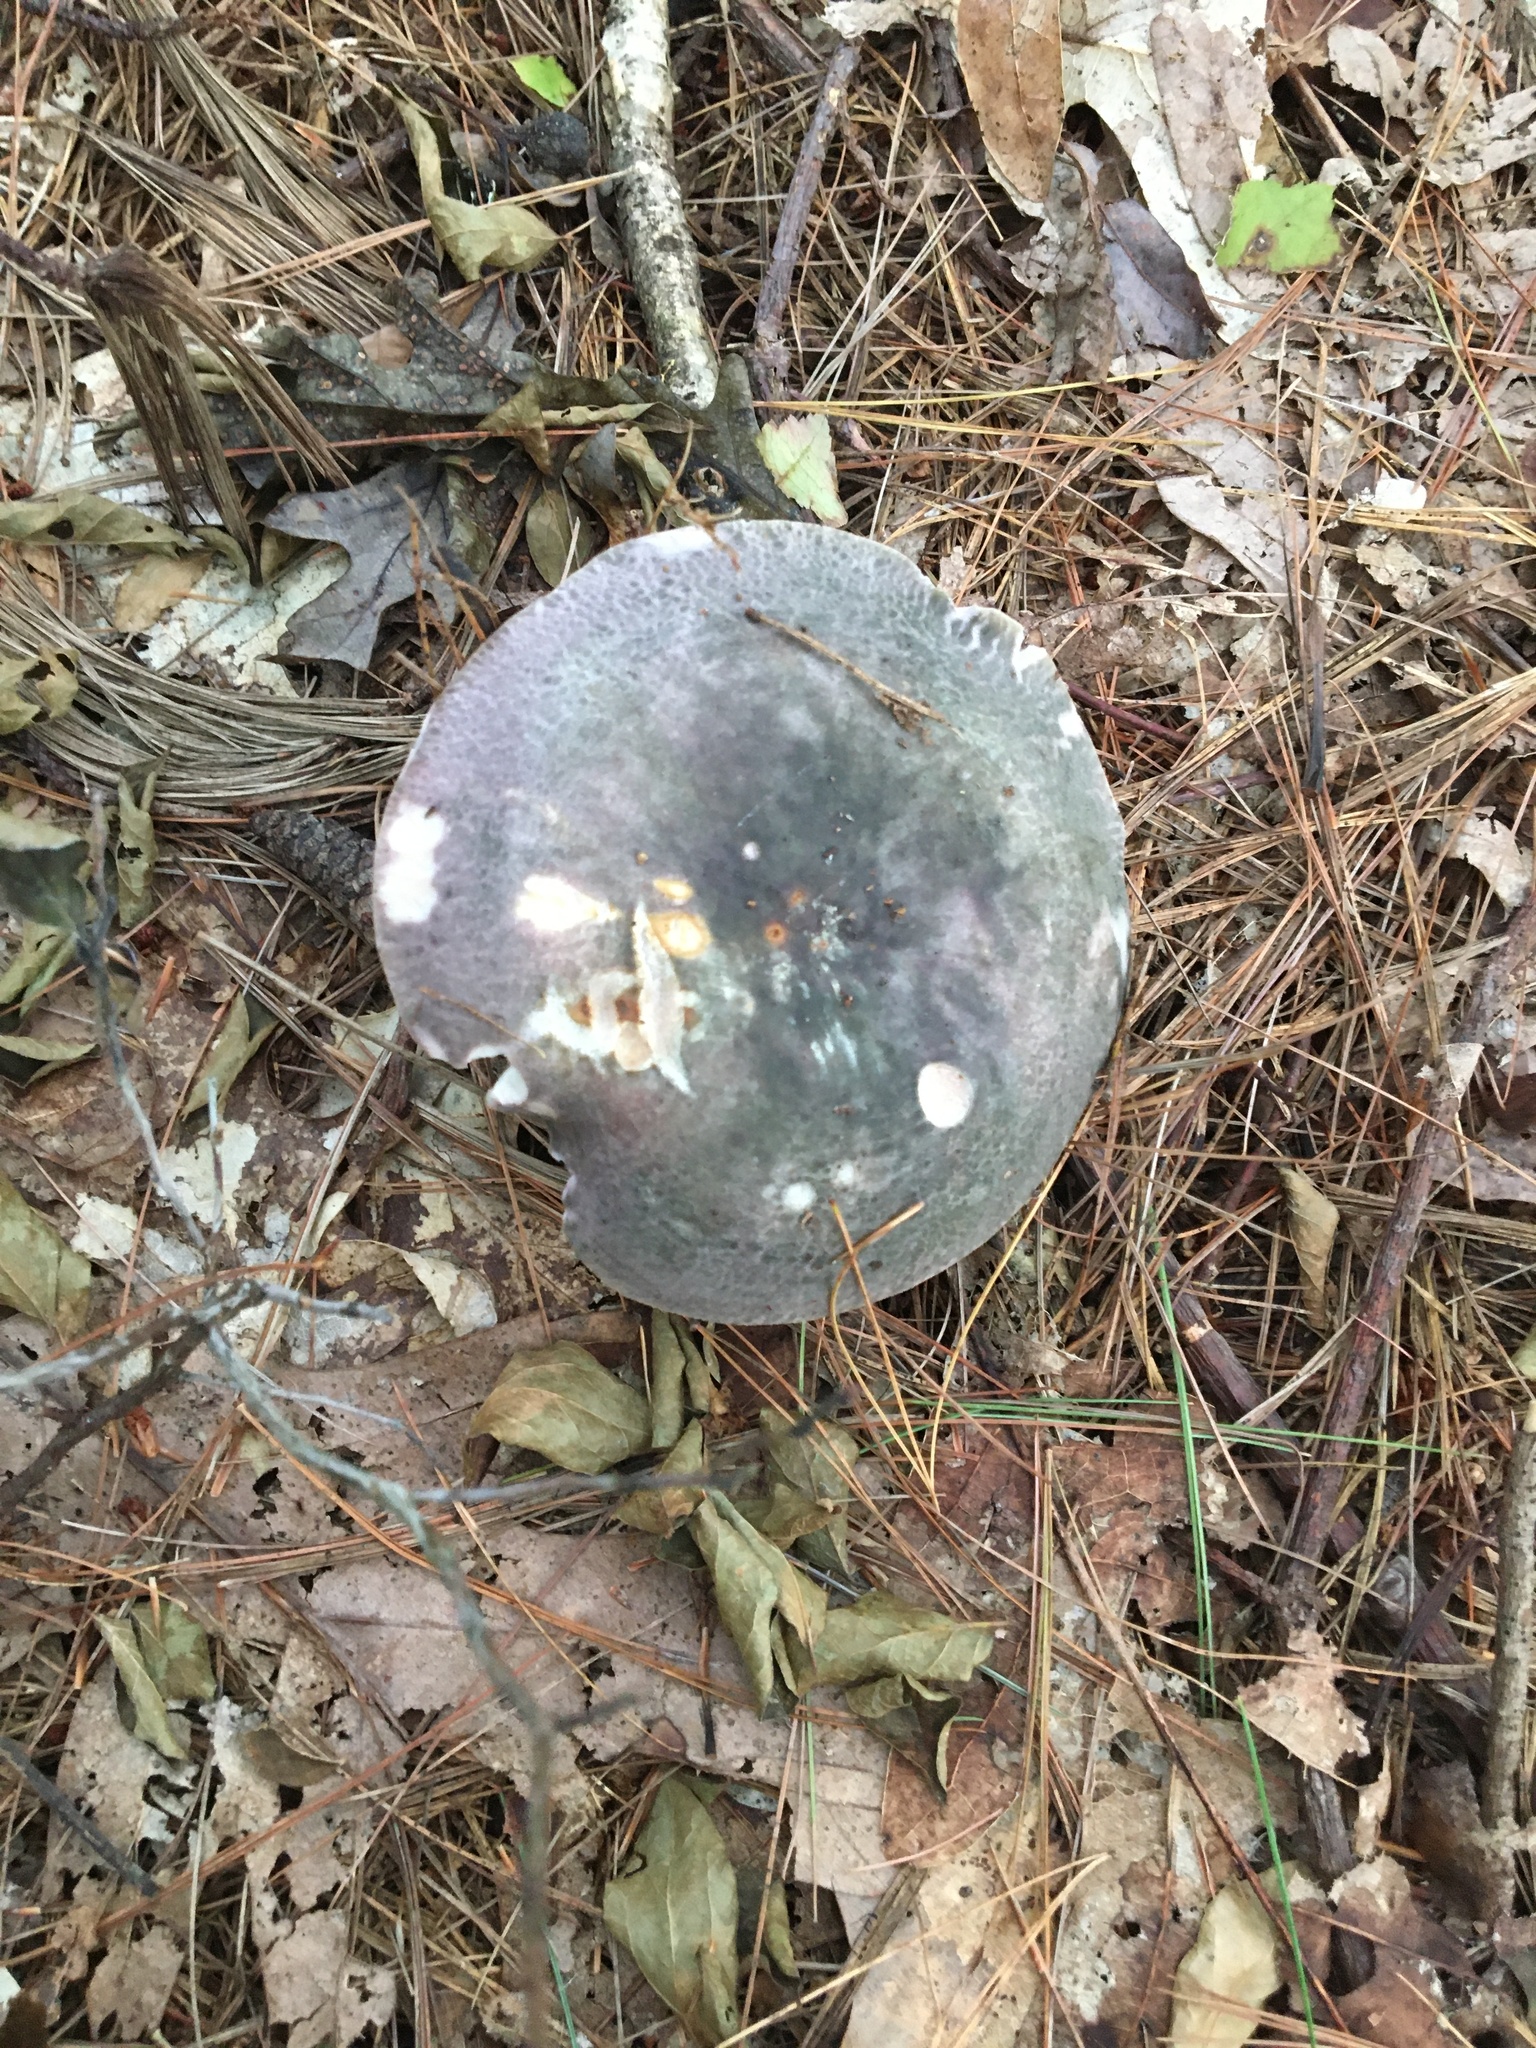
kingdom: Fungi
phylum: Basidiomycota
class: Agaricomycetes
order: Russulales
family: Russulaceae
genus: Russula
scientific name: Russula cyanoxantha
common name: Charcoal burner
